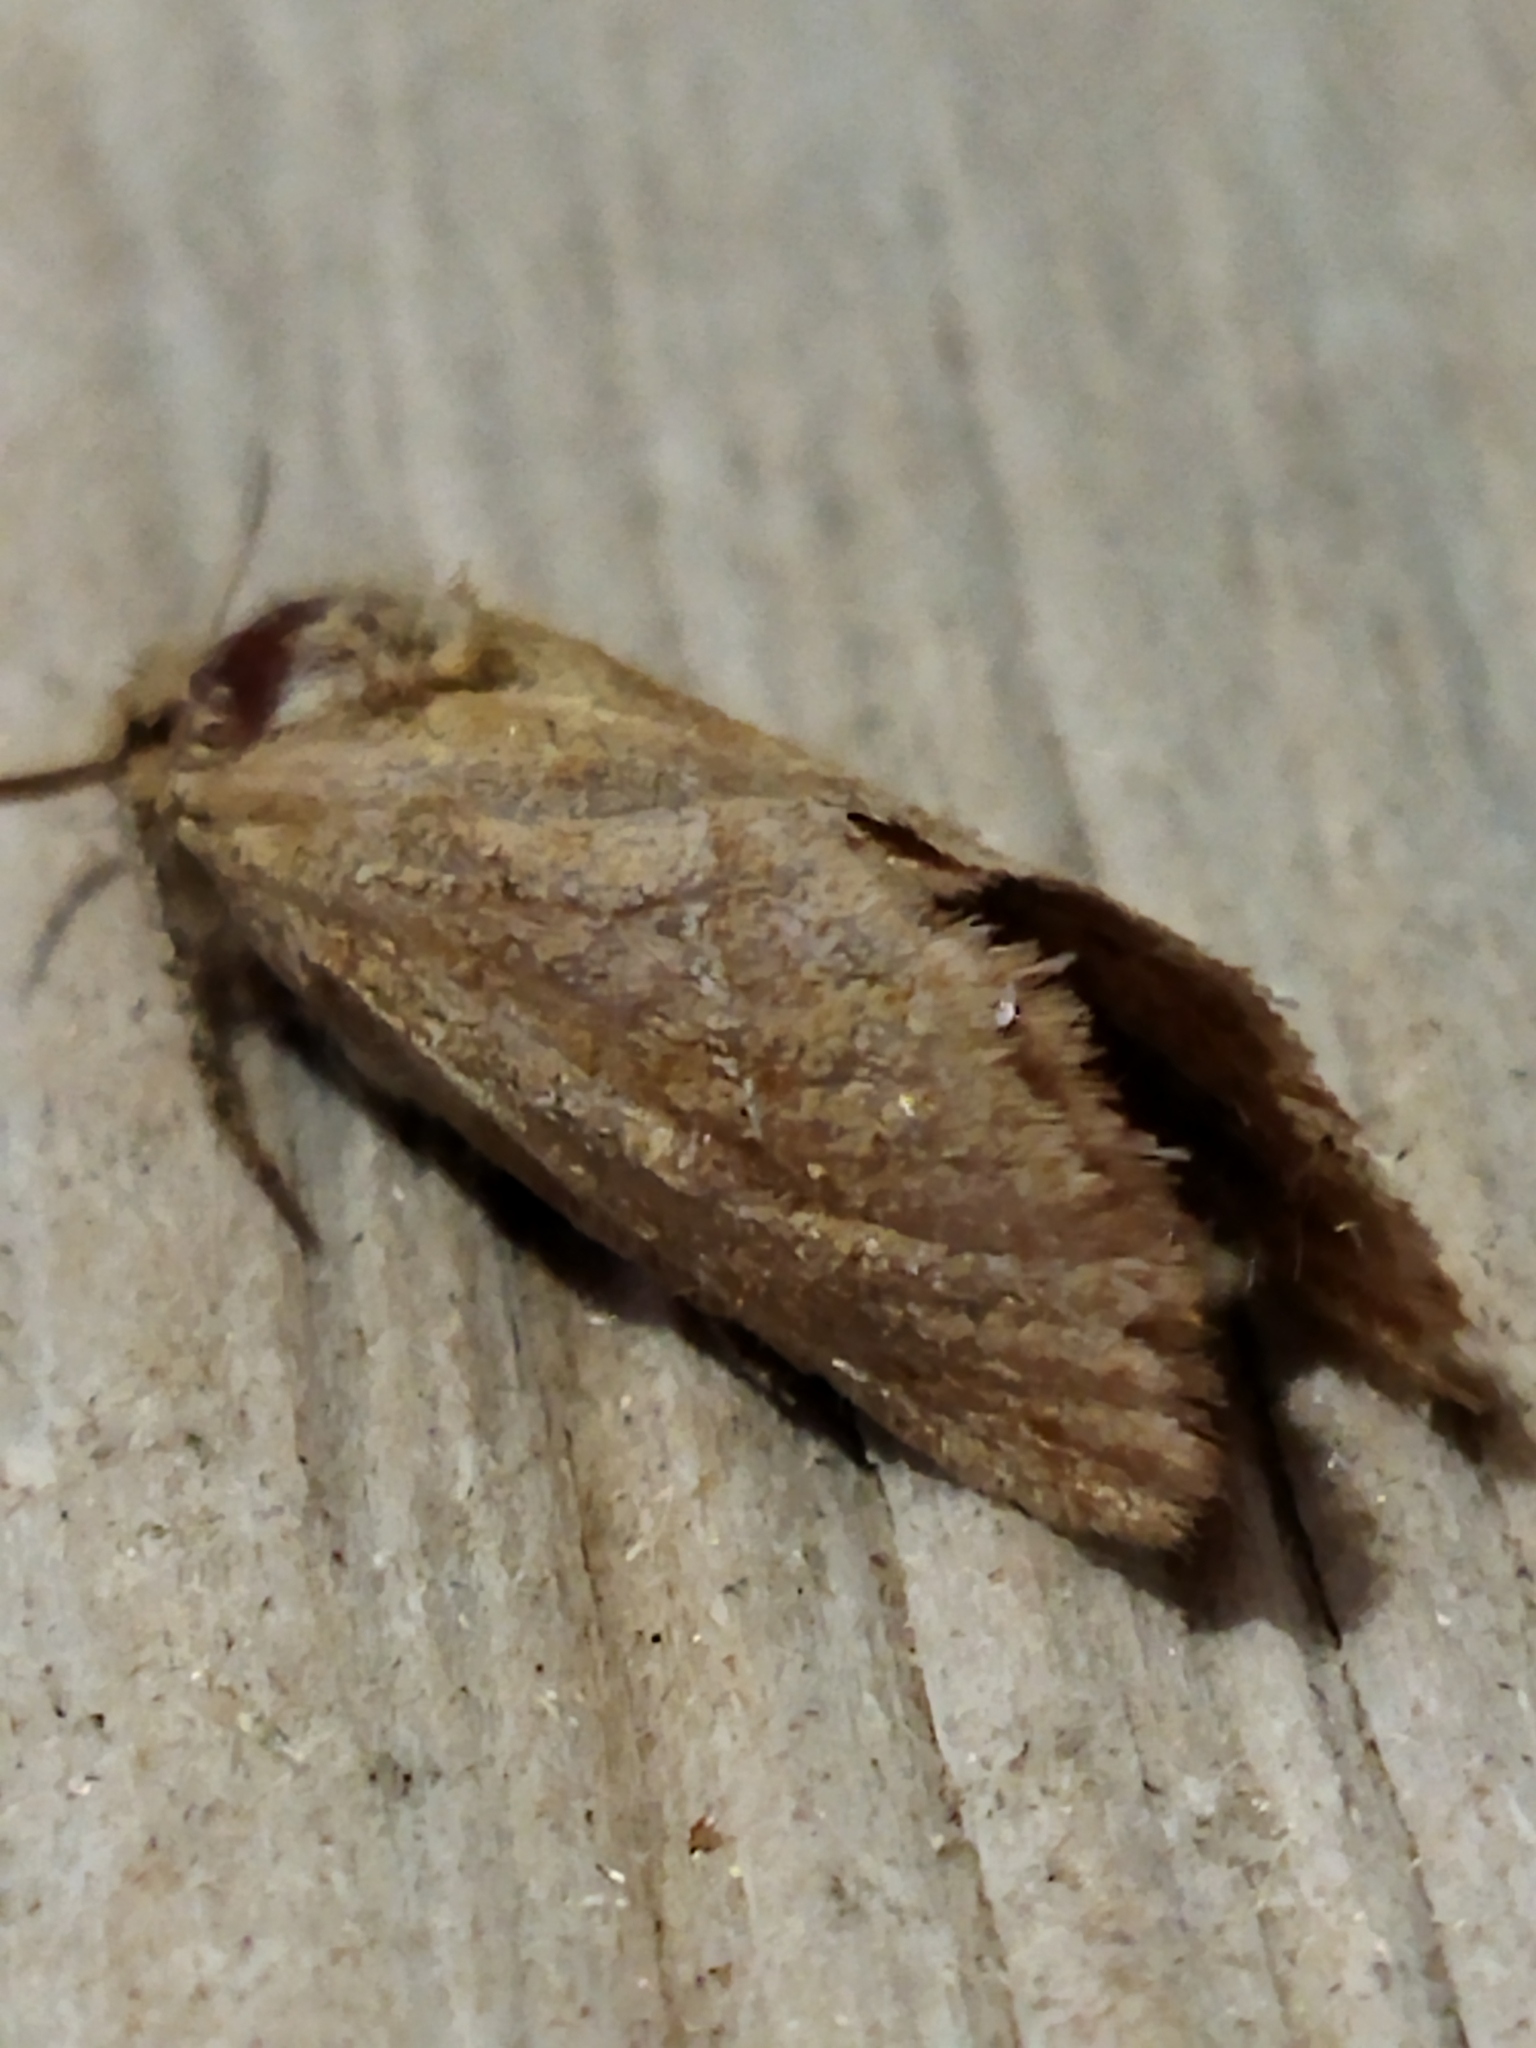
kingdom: Animalia
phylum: Arthropoda
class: Insecta
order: Lepidoptera
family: Hepialidae
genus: Triodia
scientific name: Triodia amasinus
